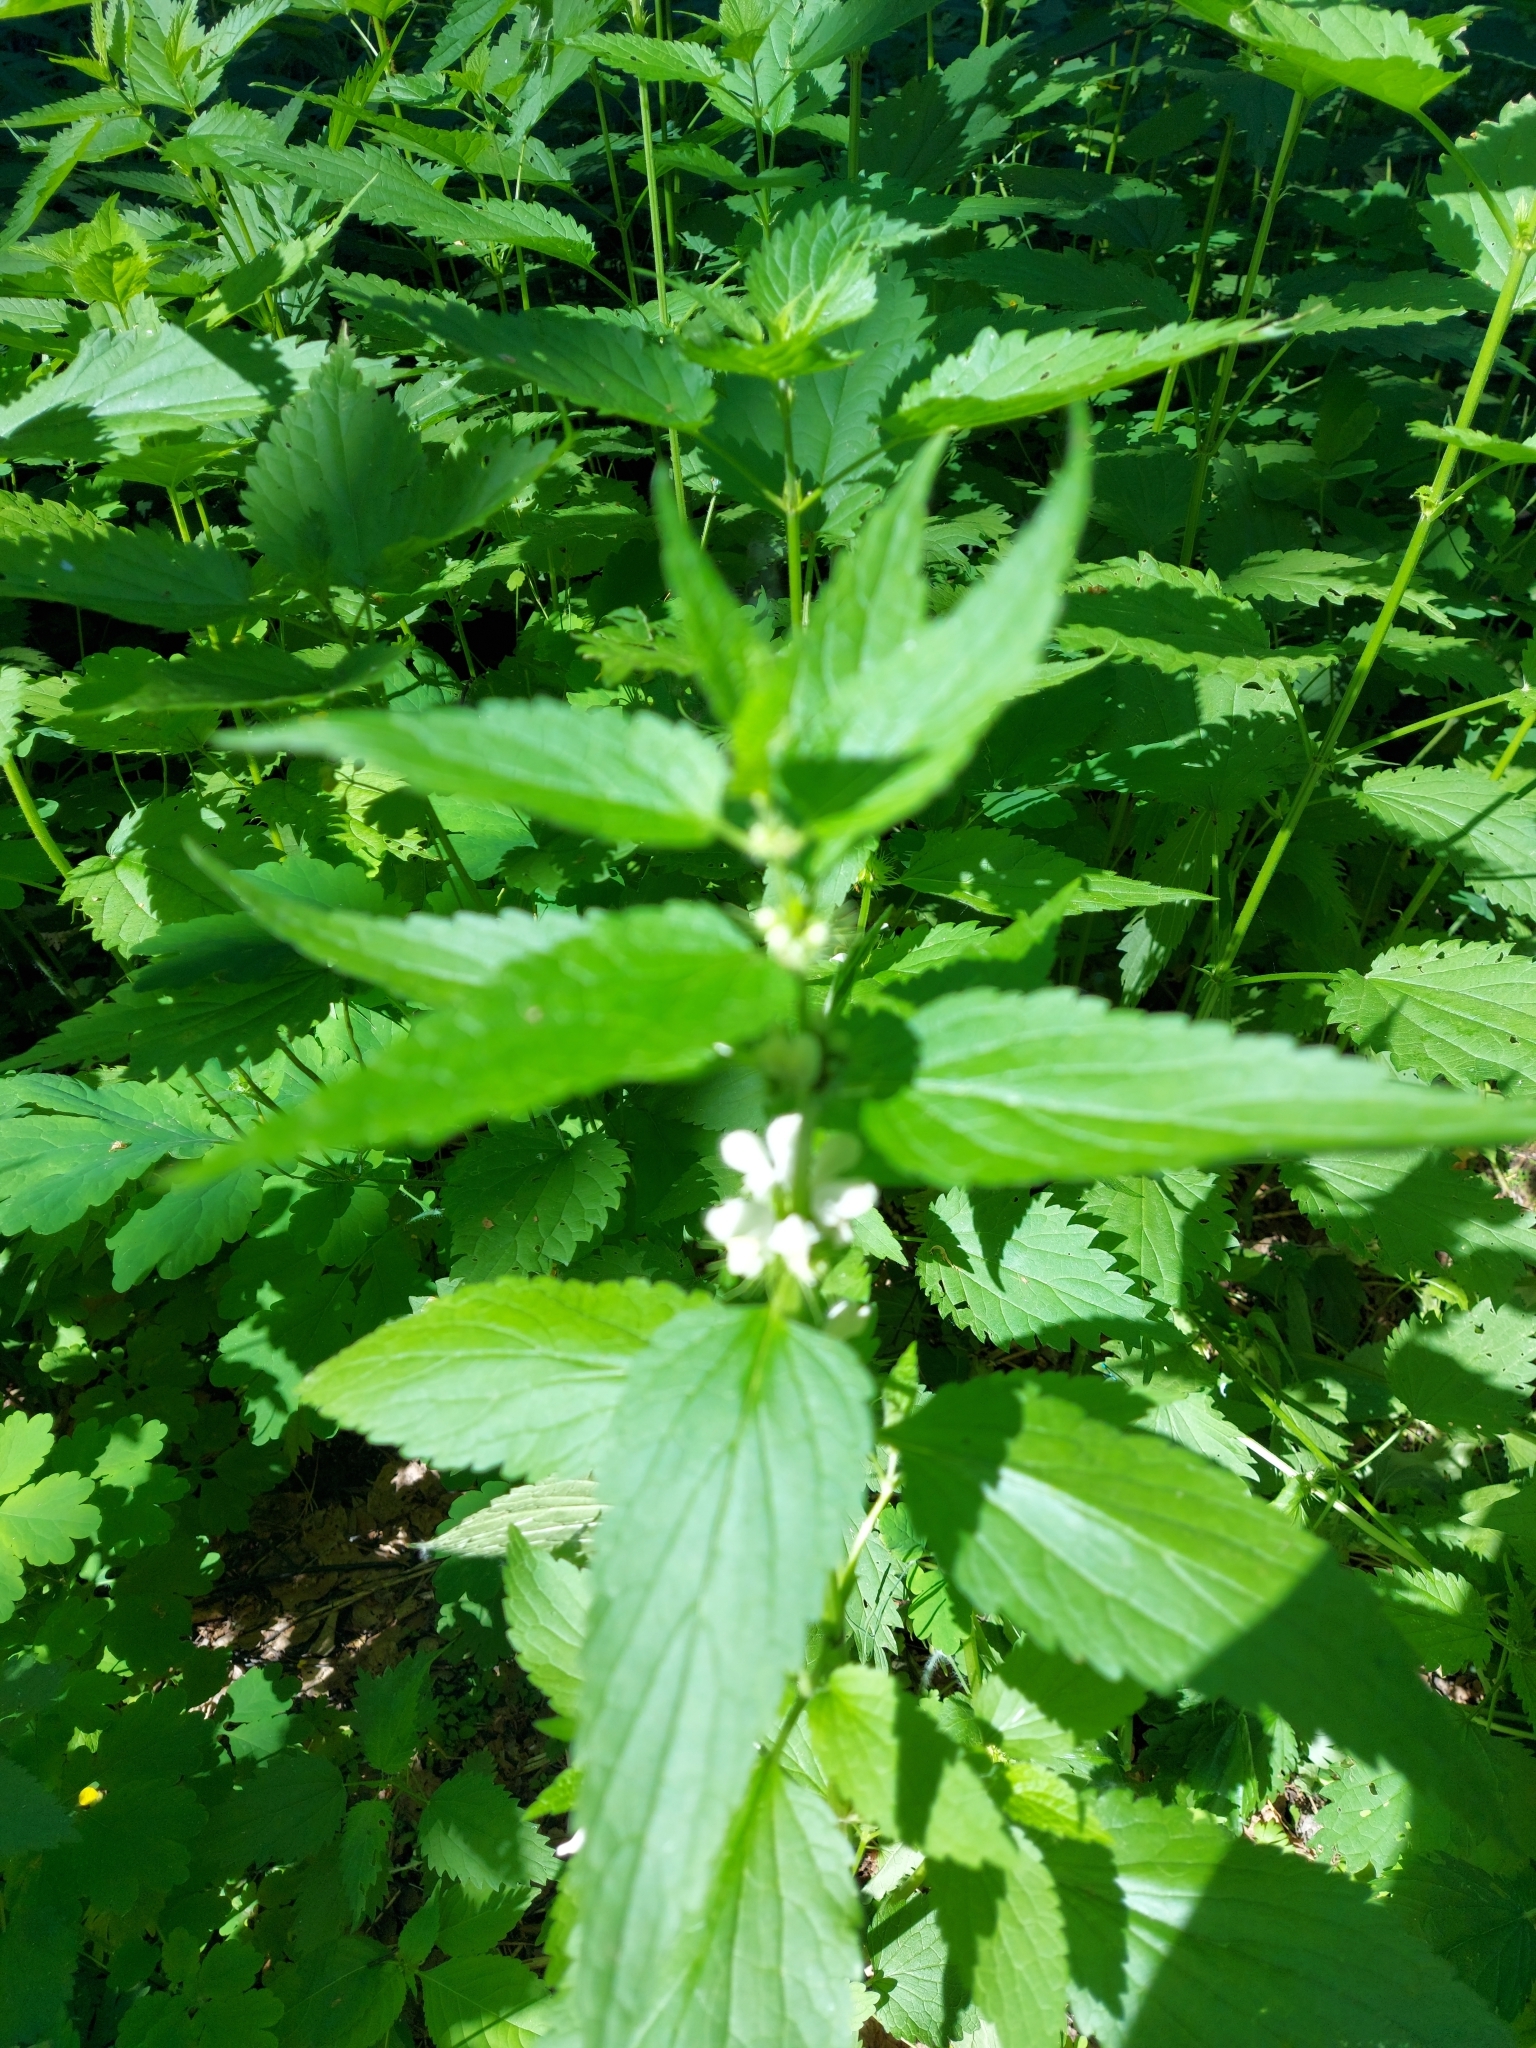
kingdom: Plantae
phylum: Tracheophyta
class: Magnoliopsida
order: Lamiales
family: Lamiaceae
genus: Lamium
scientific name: Lamium album
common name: White dead-nettle
